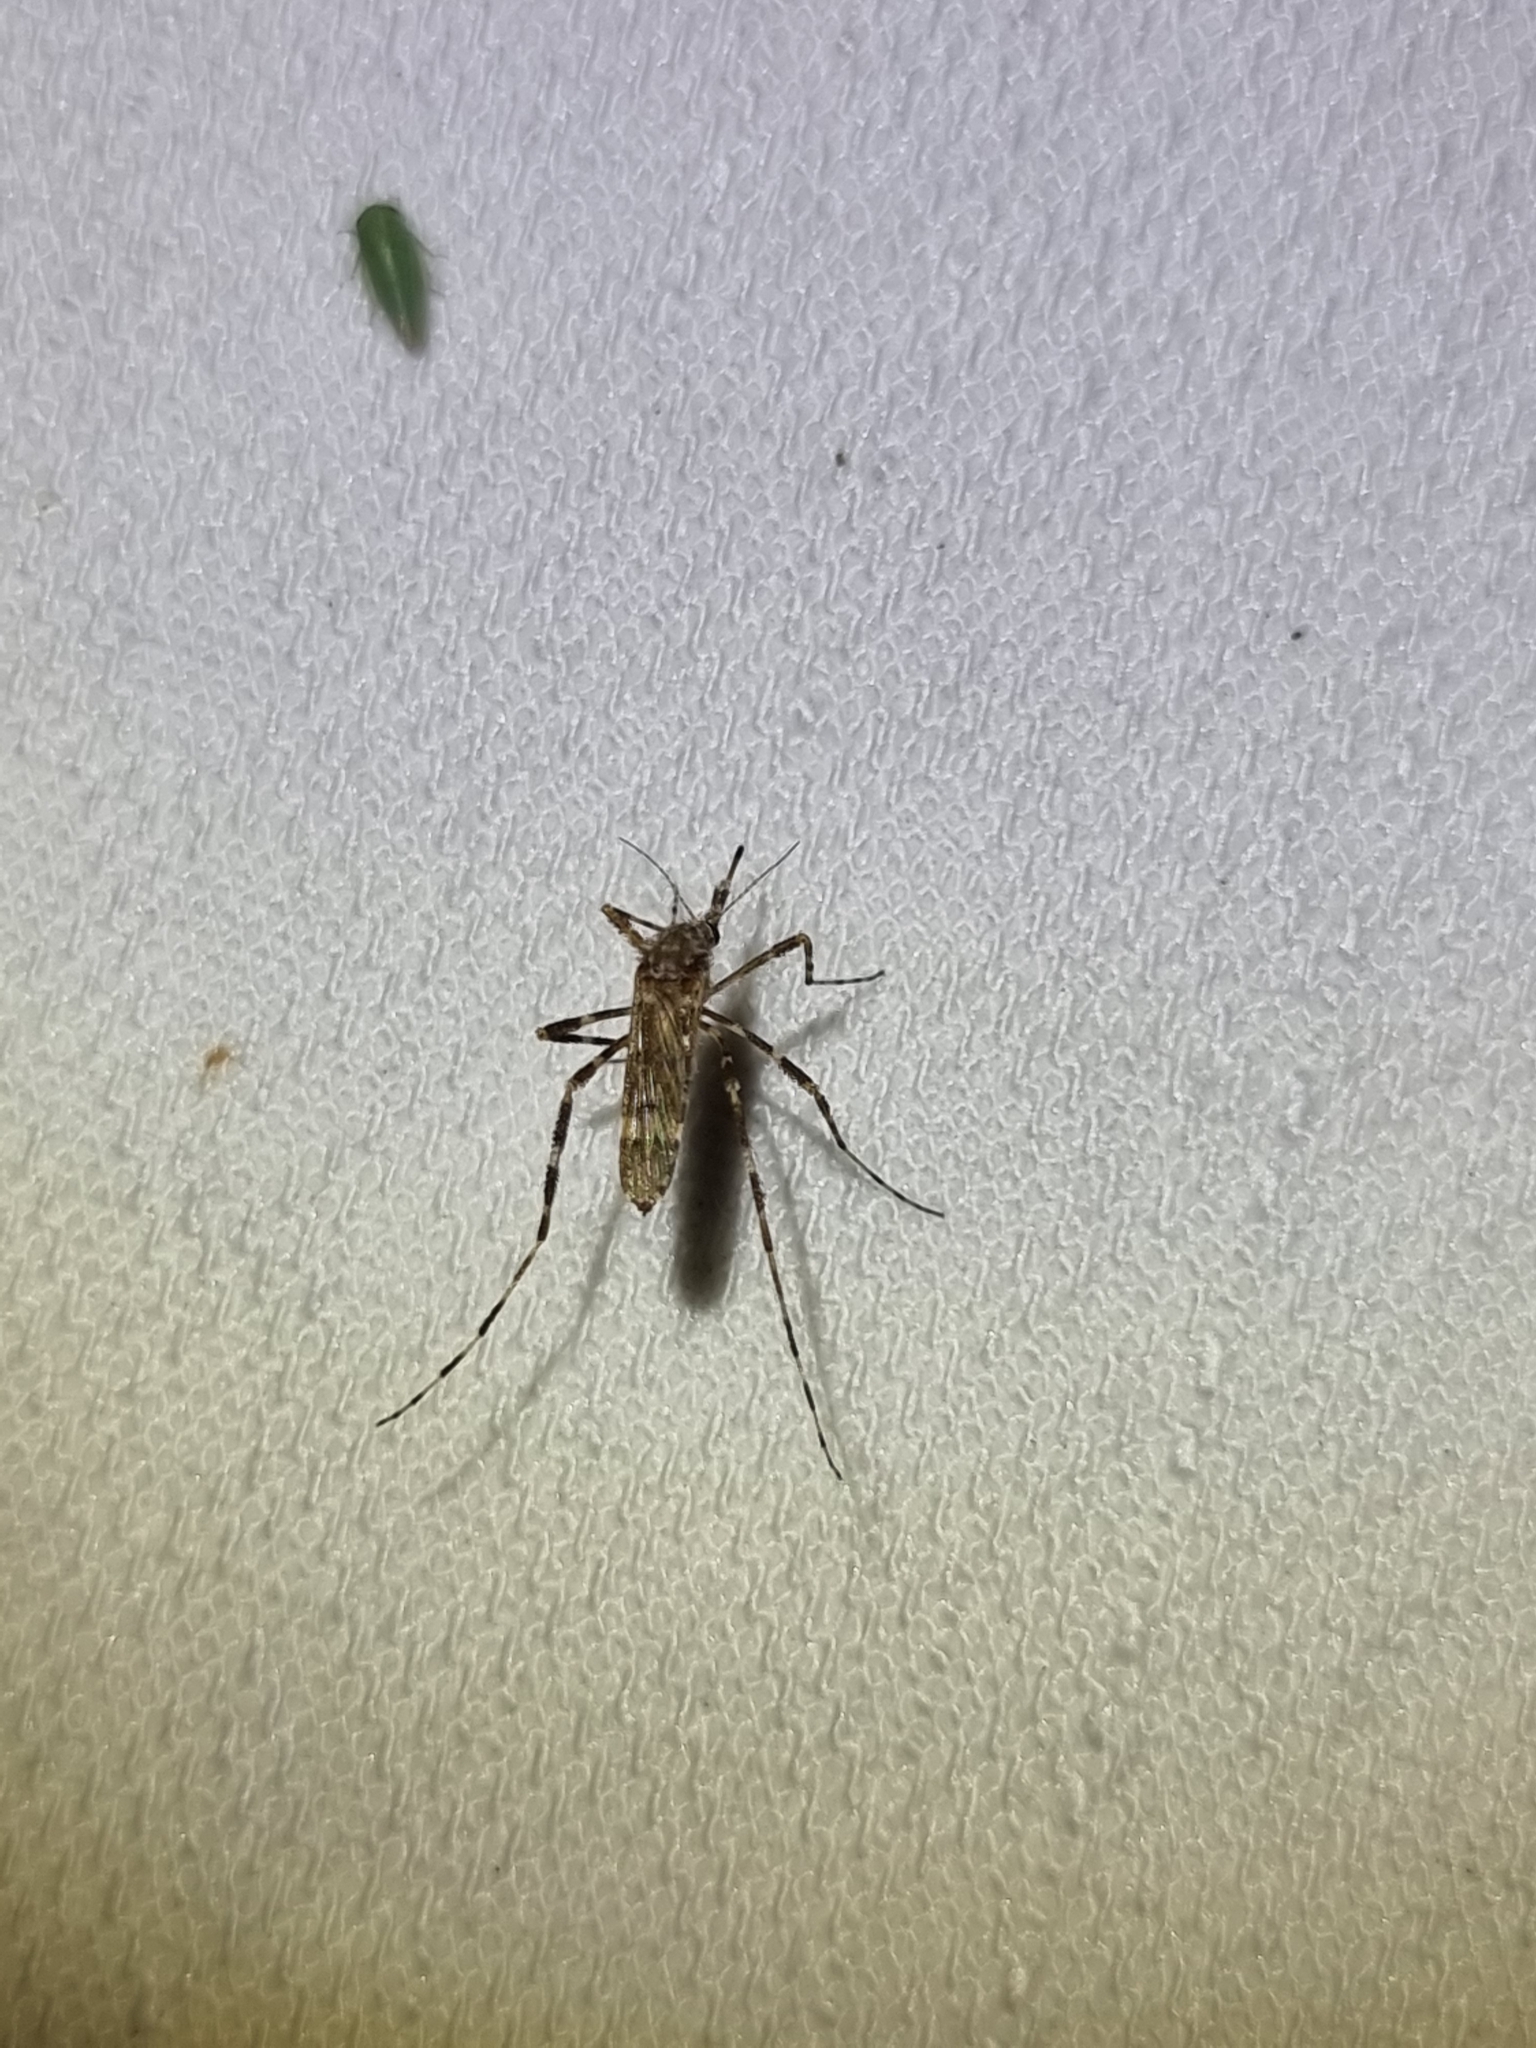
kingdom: Animalia
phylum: Arthropoda
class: Insecta
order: Diptera
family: Culicidae
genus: Aedes
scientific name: Aedes alternans
